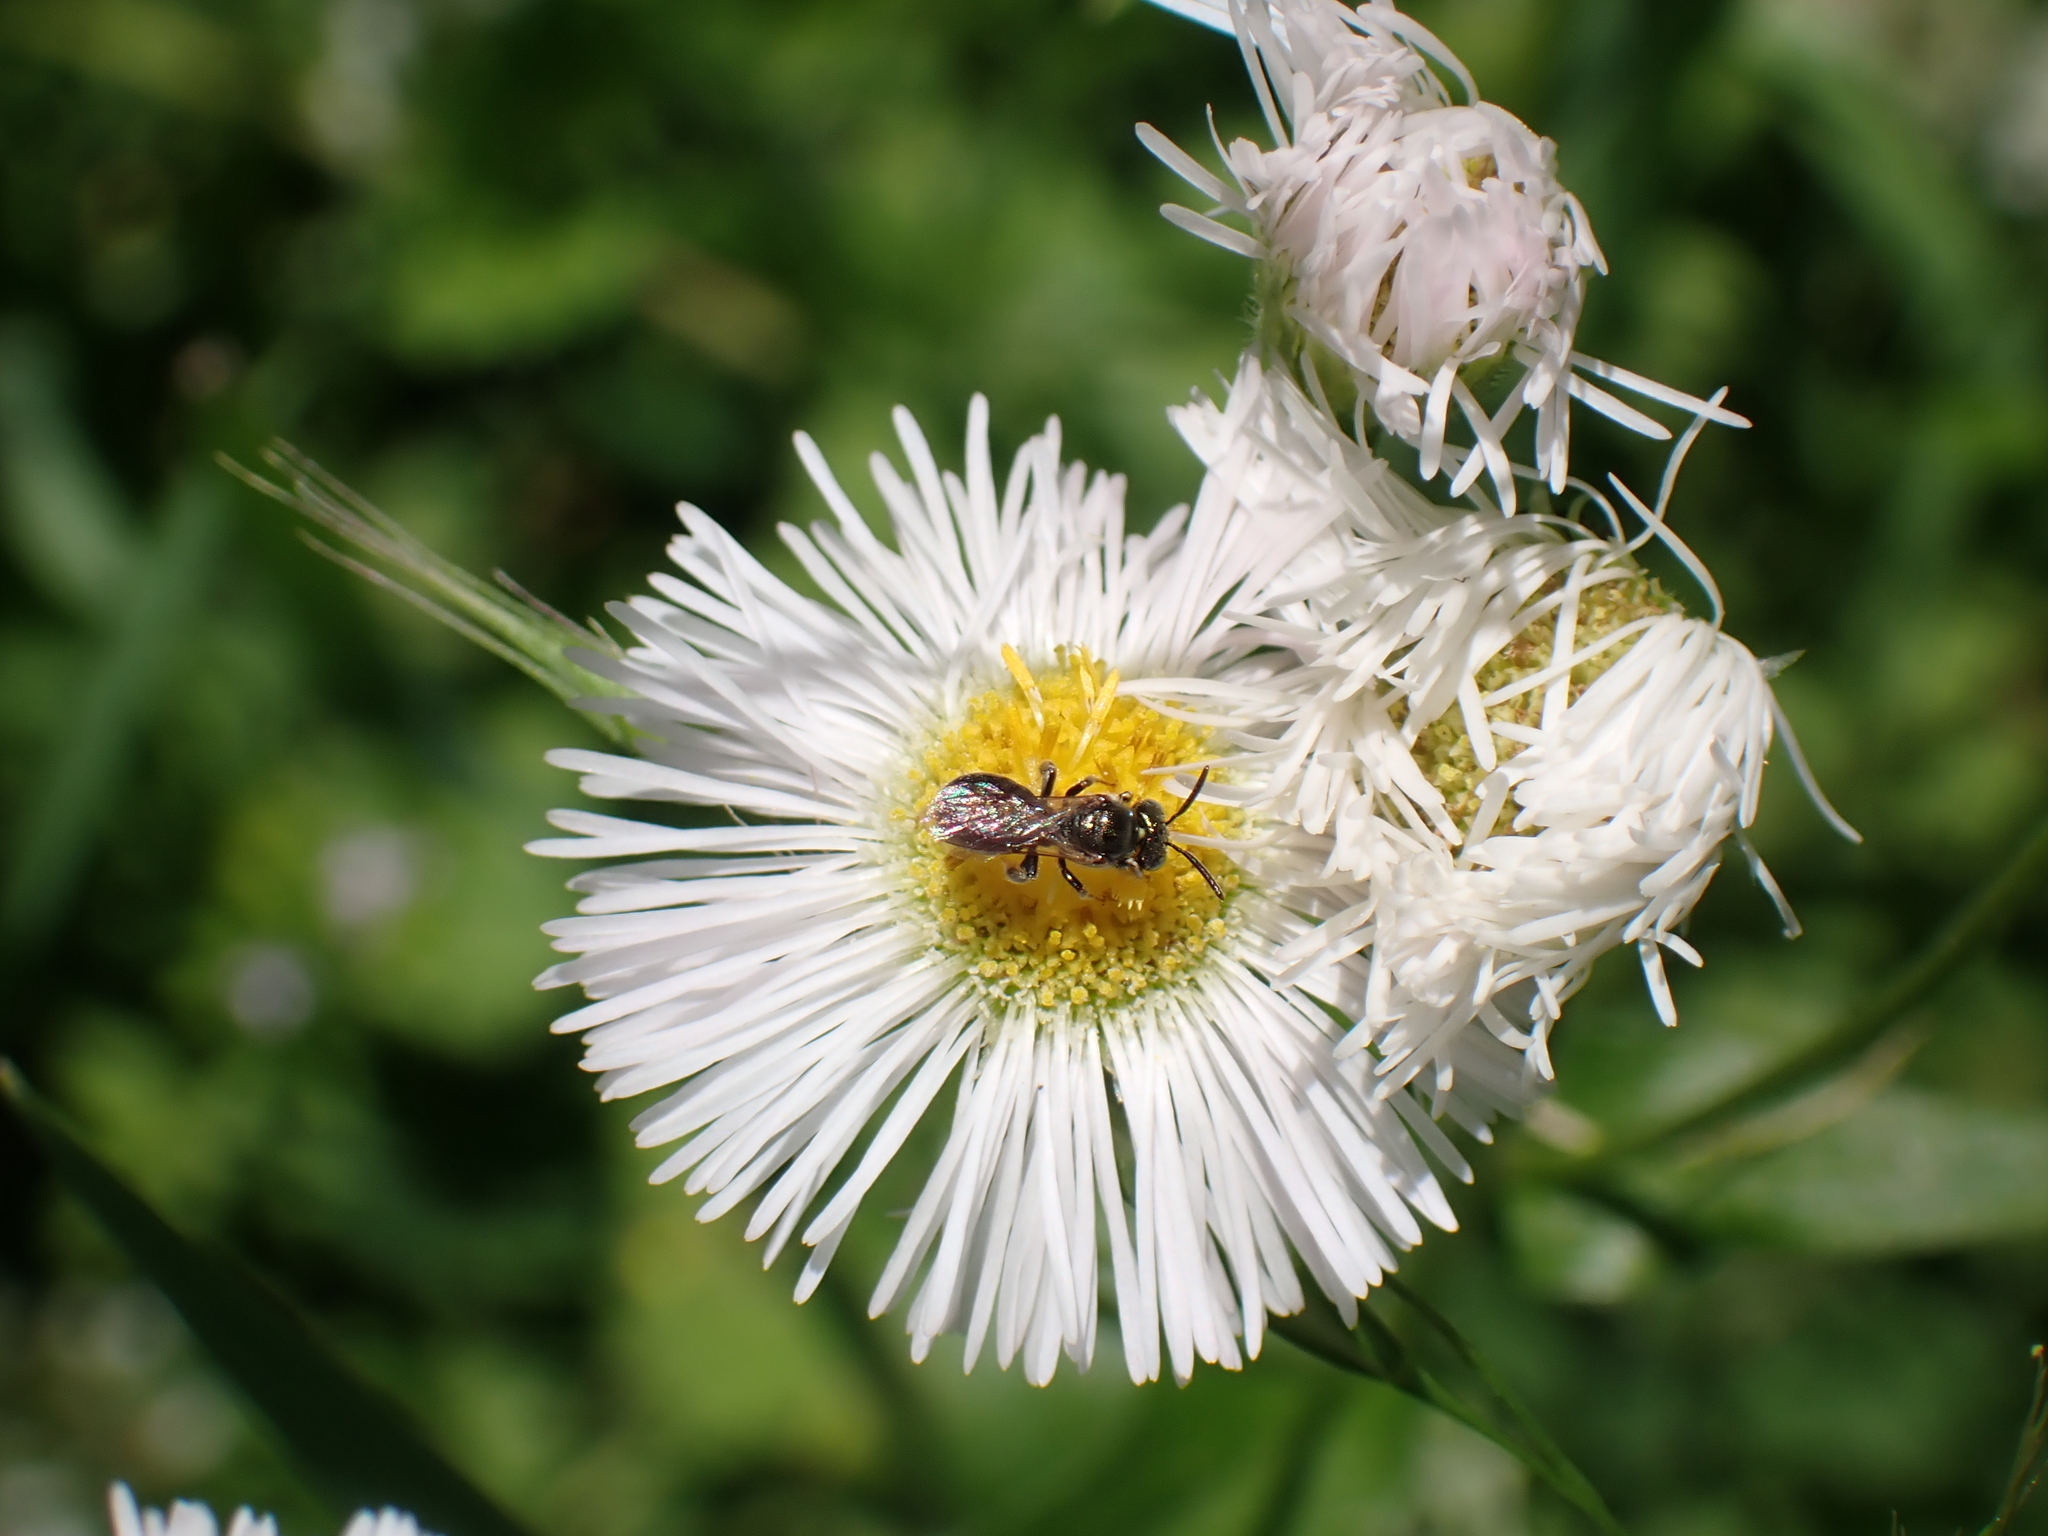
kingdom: Animalia
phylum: Arthropoda
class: Insecta
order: Hymenoptera
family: Apidae
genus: Ceratina
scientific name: Ceratina strenua
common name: Nimble carpenter bee
